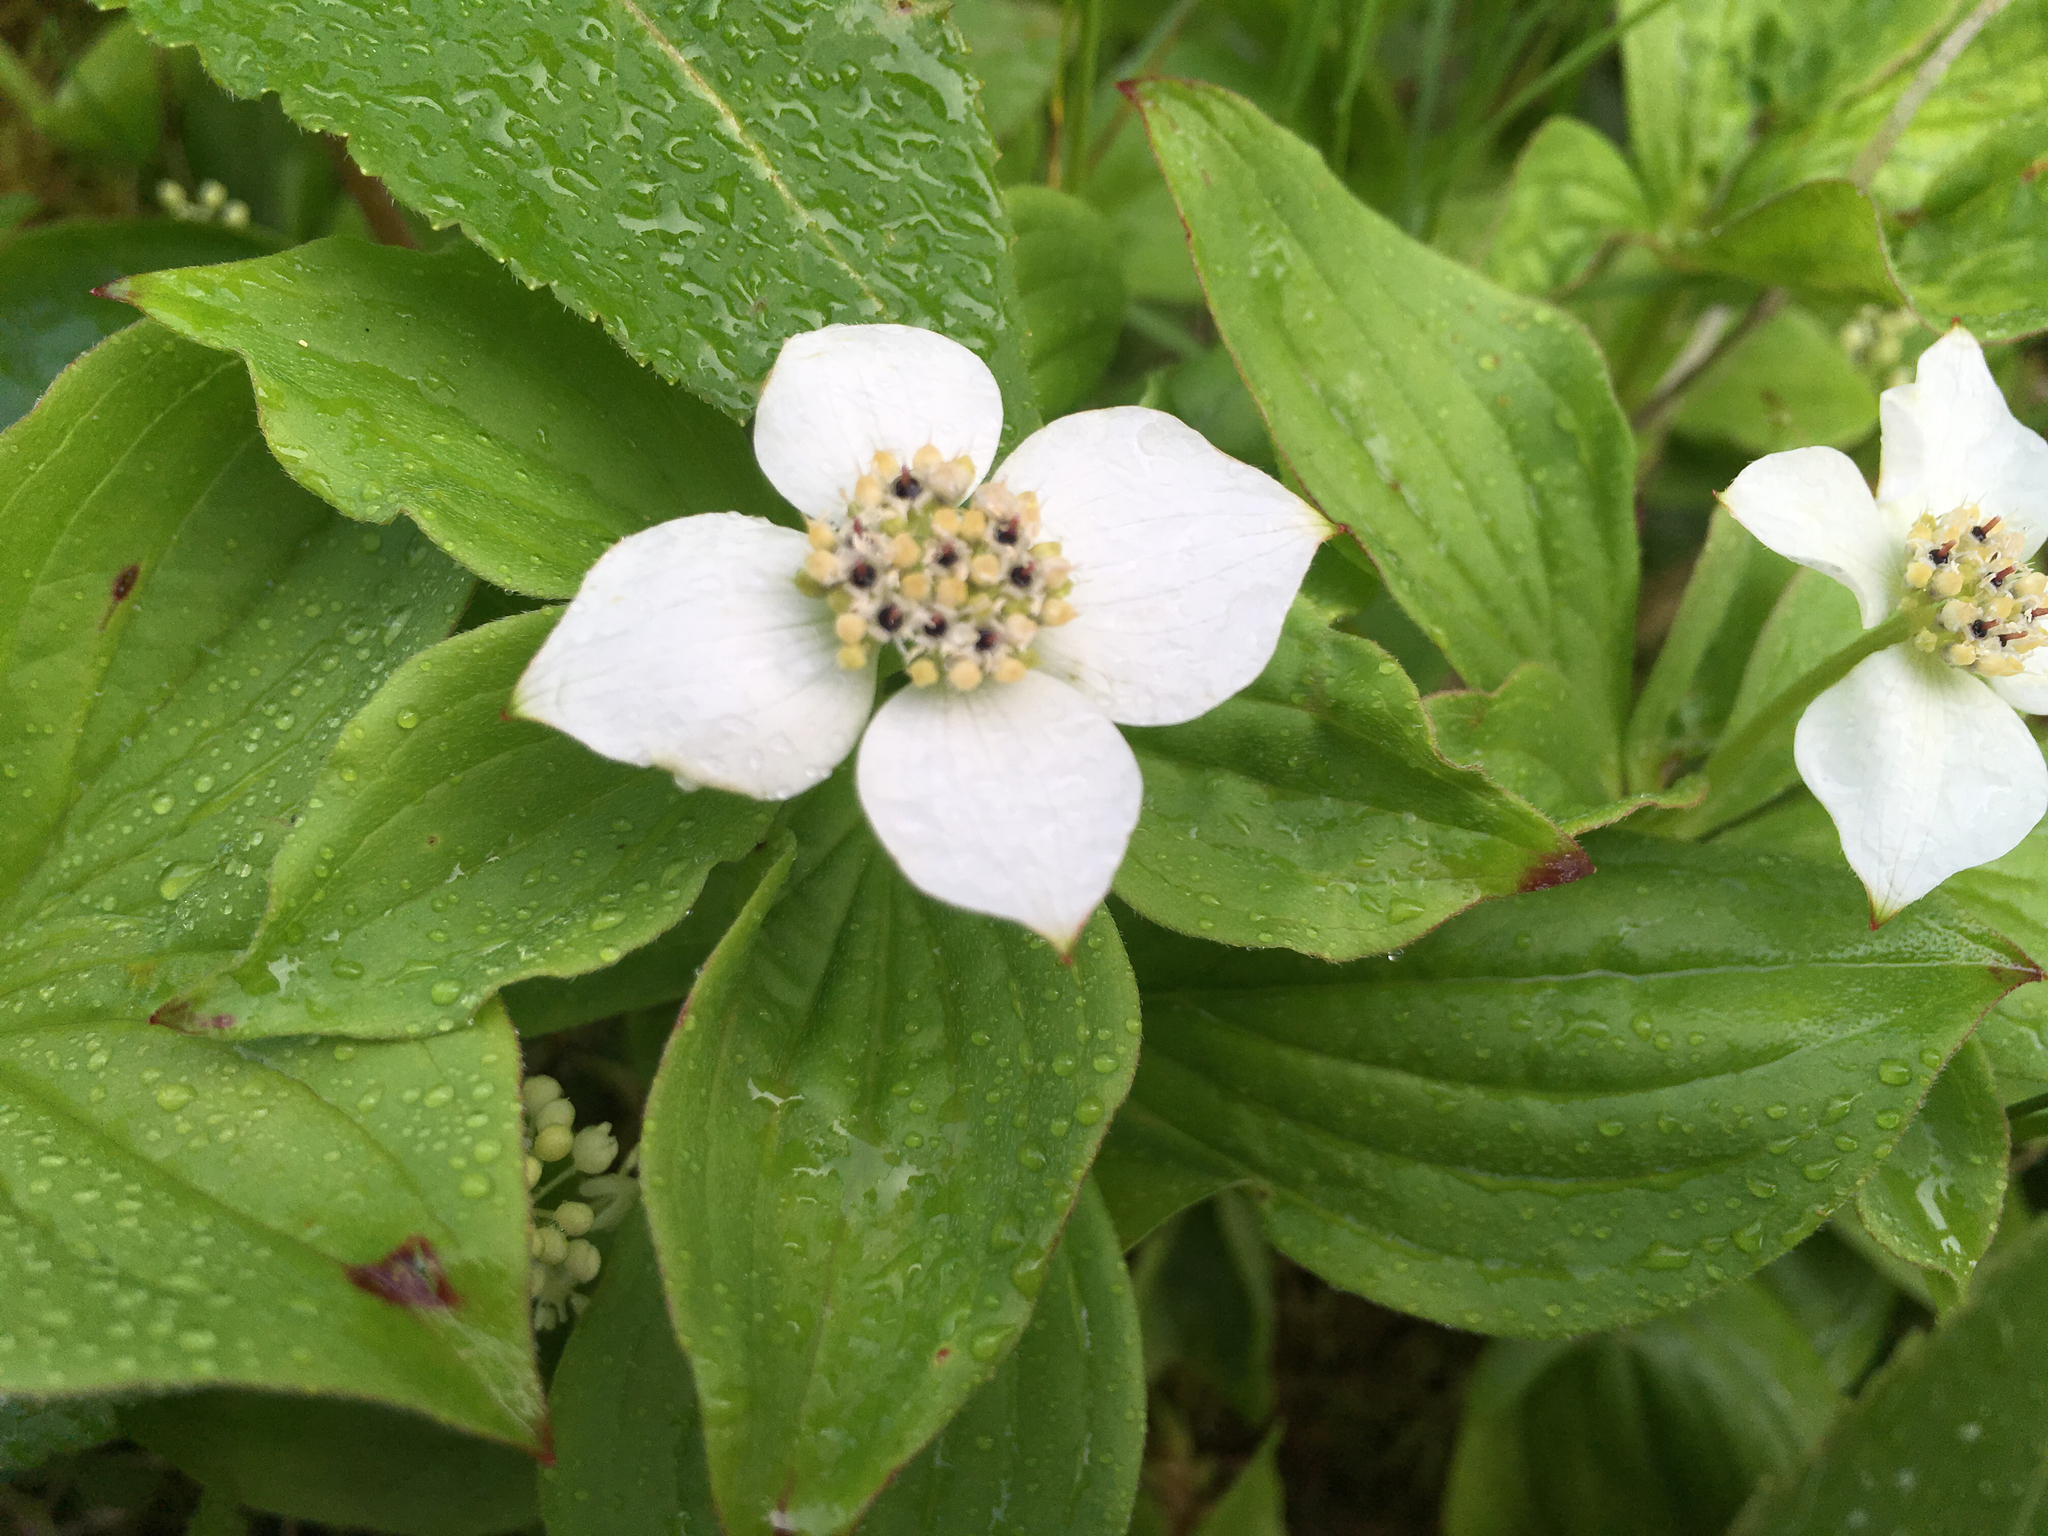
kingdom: Plantae
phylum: Tracheophyta
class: Magnoliopsida
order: Cornales
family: Cornaceae
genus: Cornus
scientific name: Cornus canadensis
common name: Creeping dogwood
